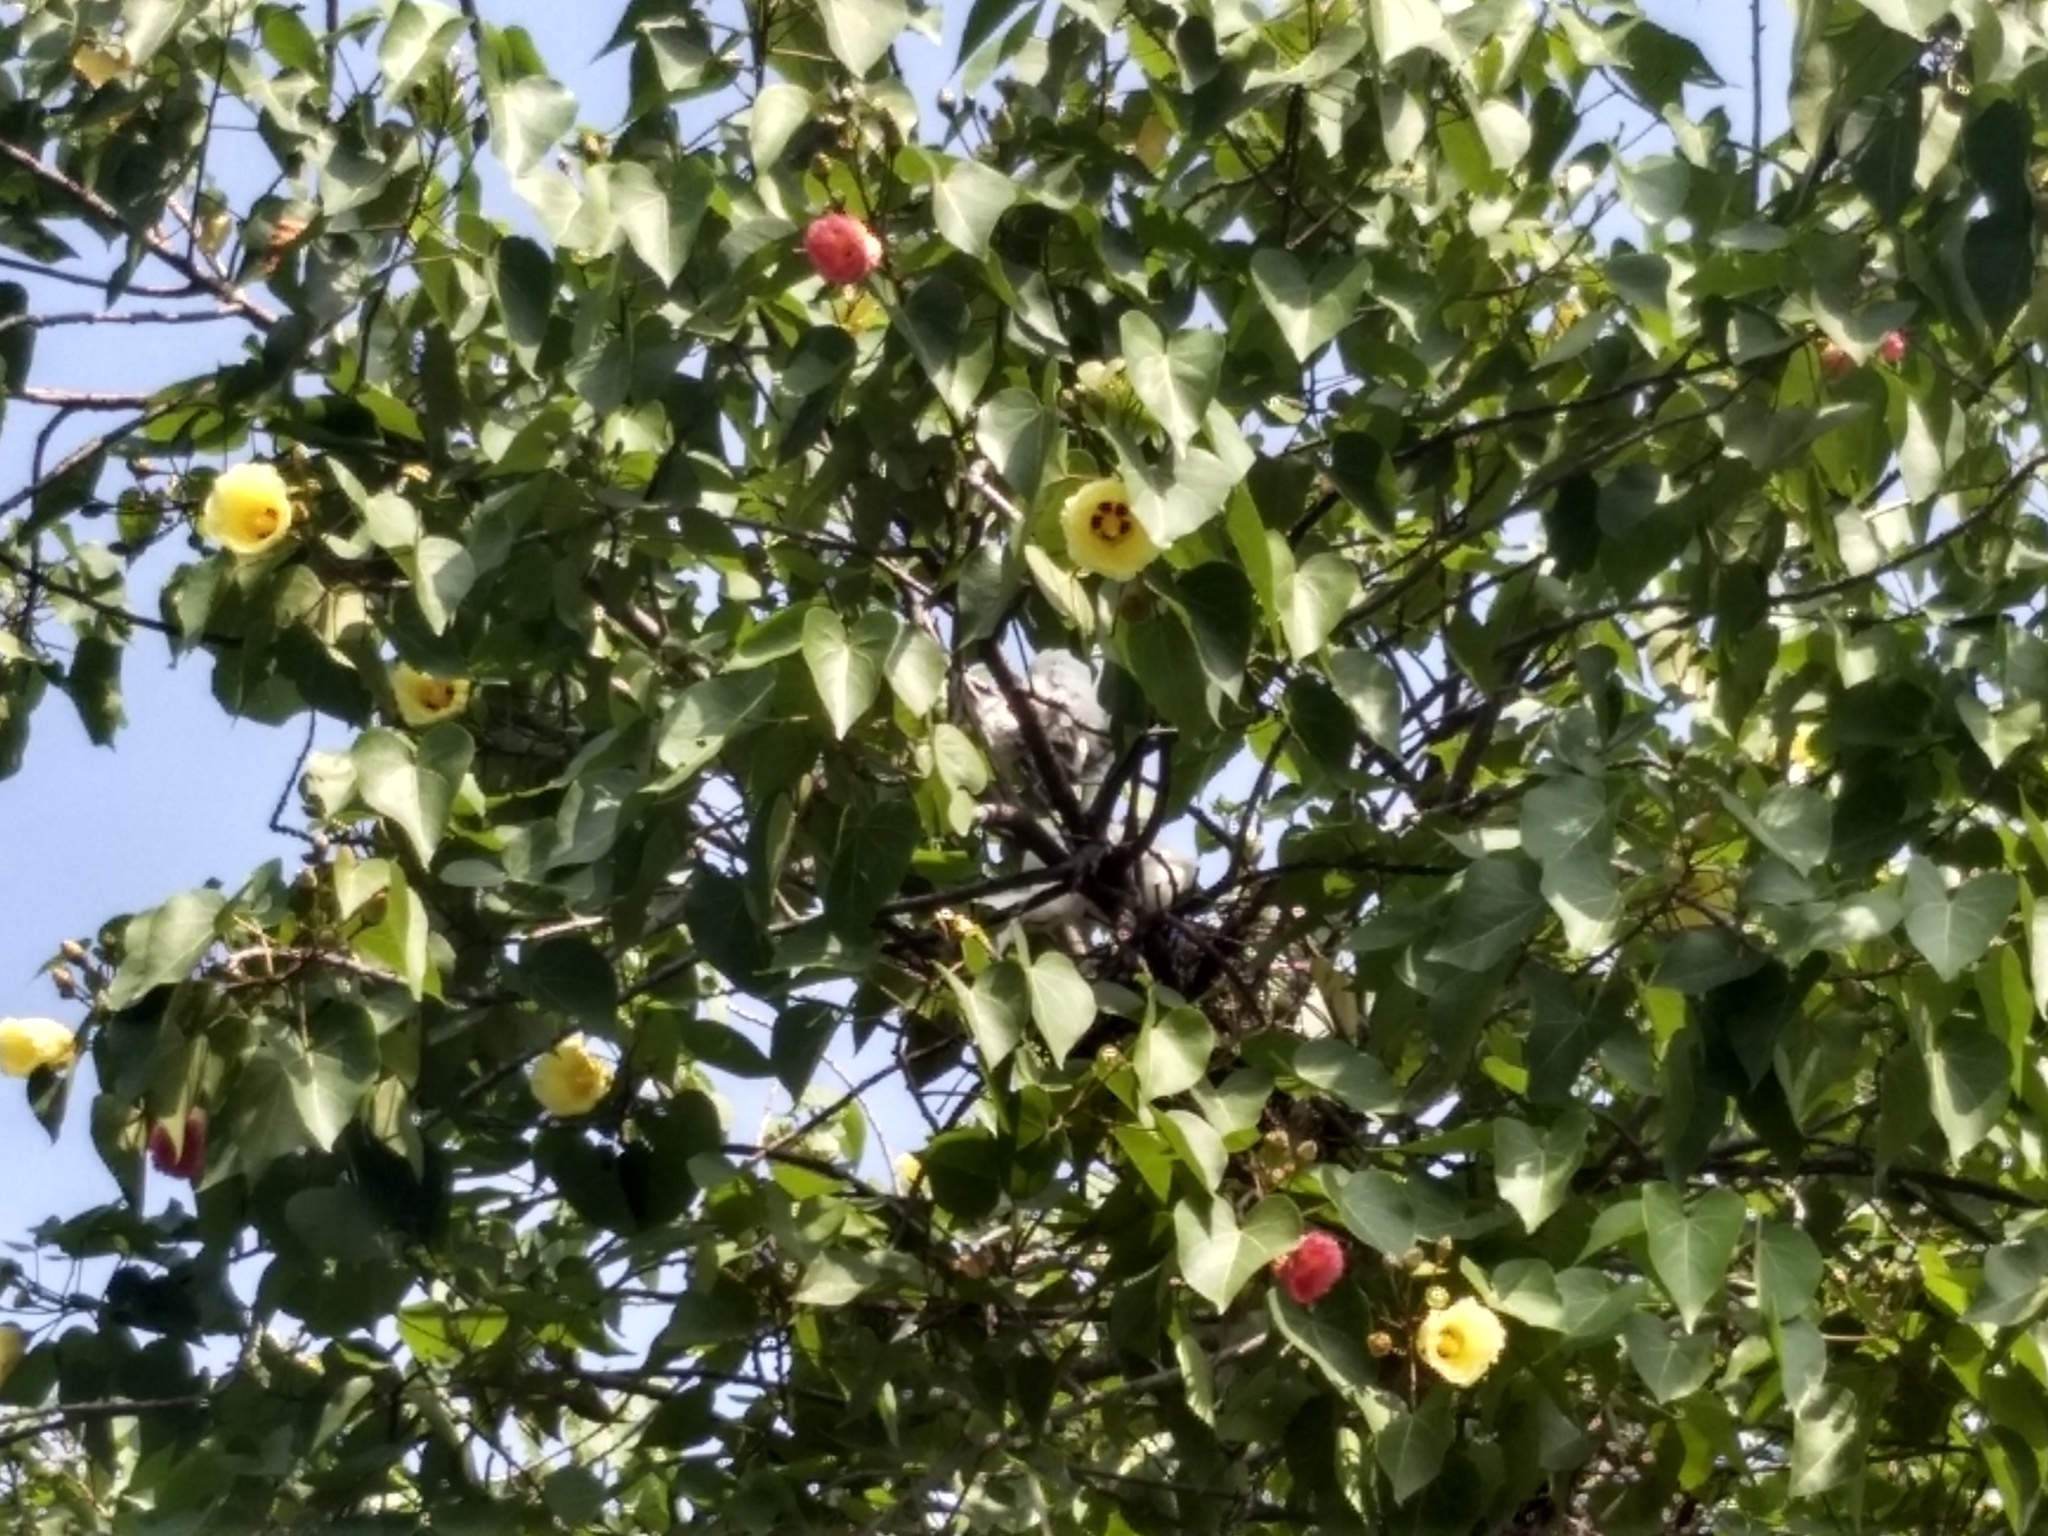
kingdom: Plantae
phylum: Tracheophyta
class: Magnoliopsida
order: Malvales
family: Malvaceae
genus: Thespesia
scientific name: Thespesia populnea
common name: Seaside mahoe
